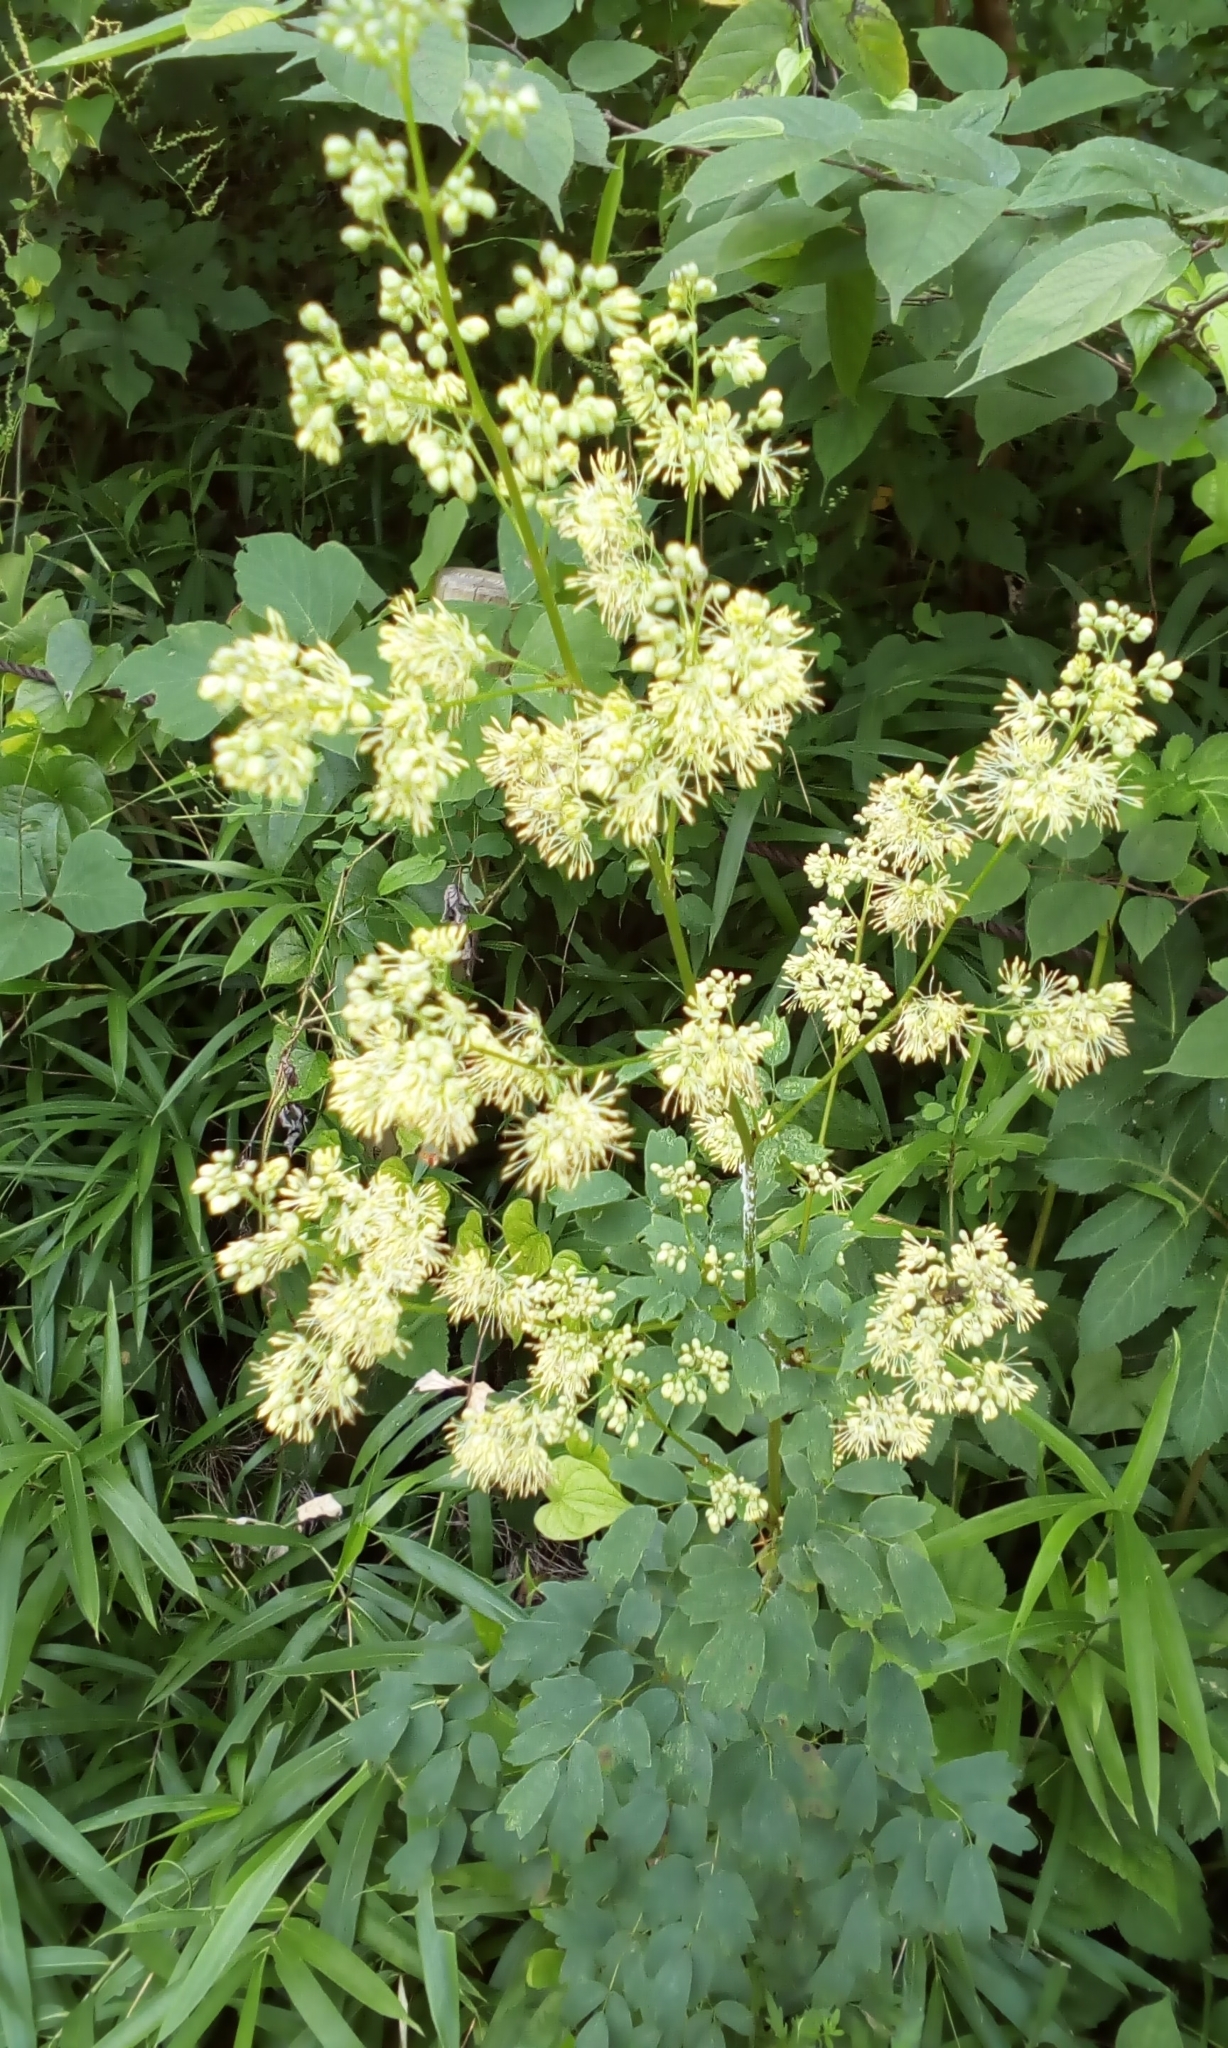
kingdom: Plantae
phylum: Tracheophyta
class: Magnoliopsida
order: Ranunculales
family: Ranunculaceae
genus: Thalictrum
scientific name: Thalictrum minus
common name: Lesser meadow-rue
